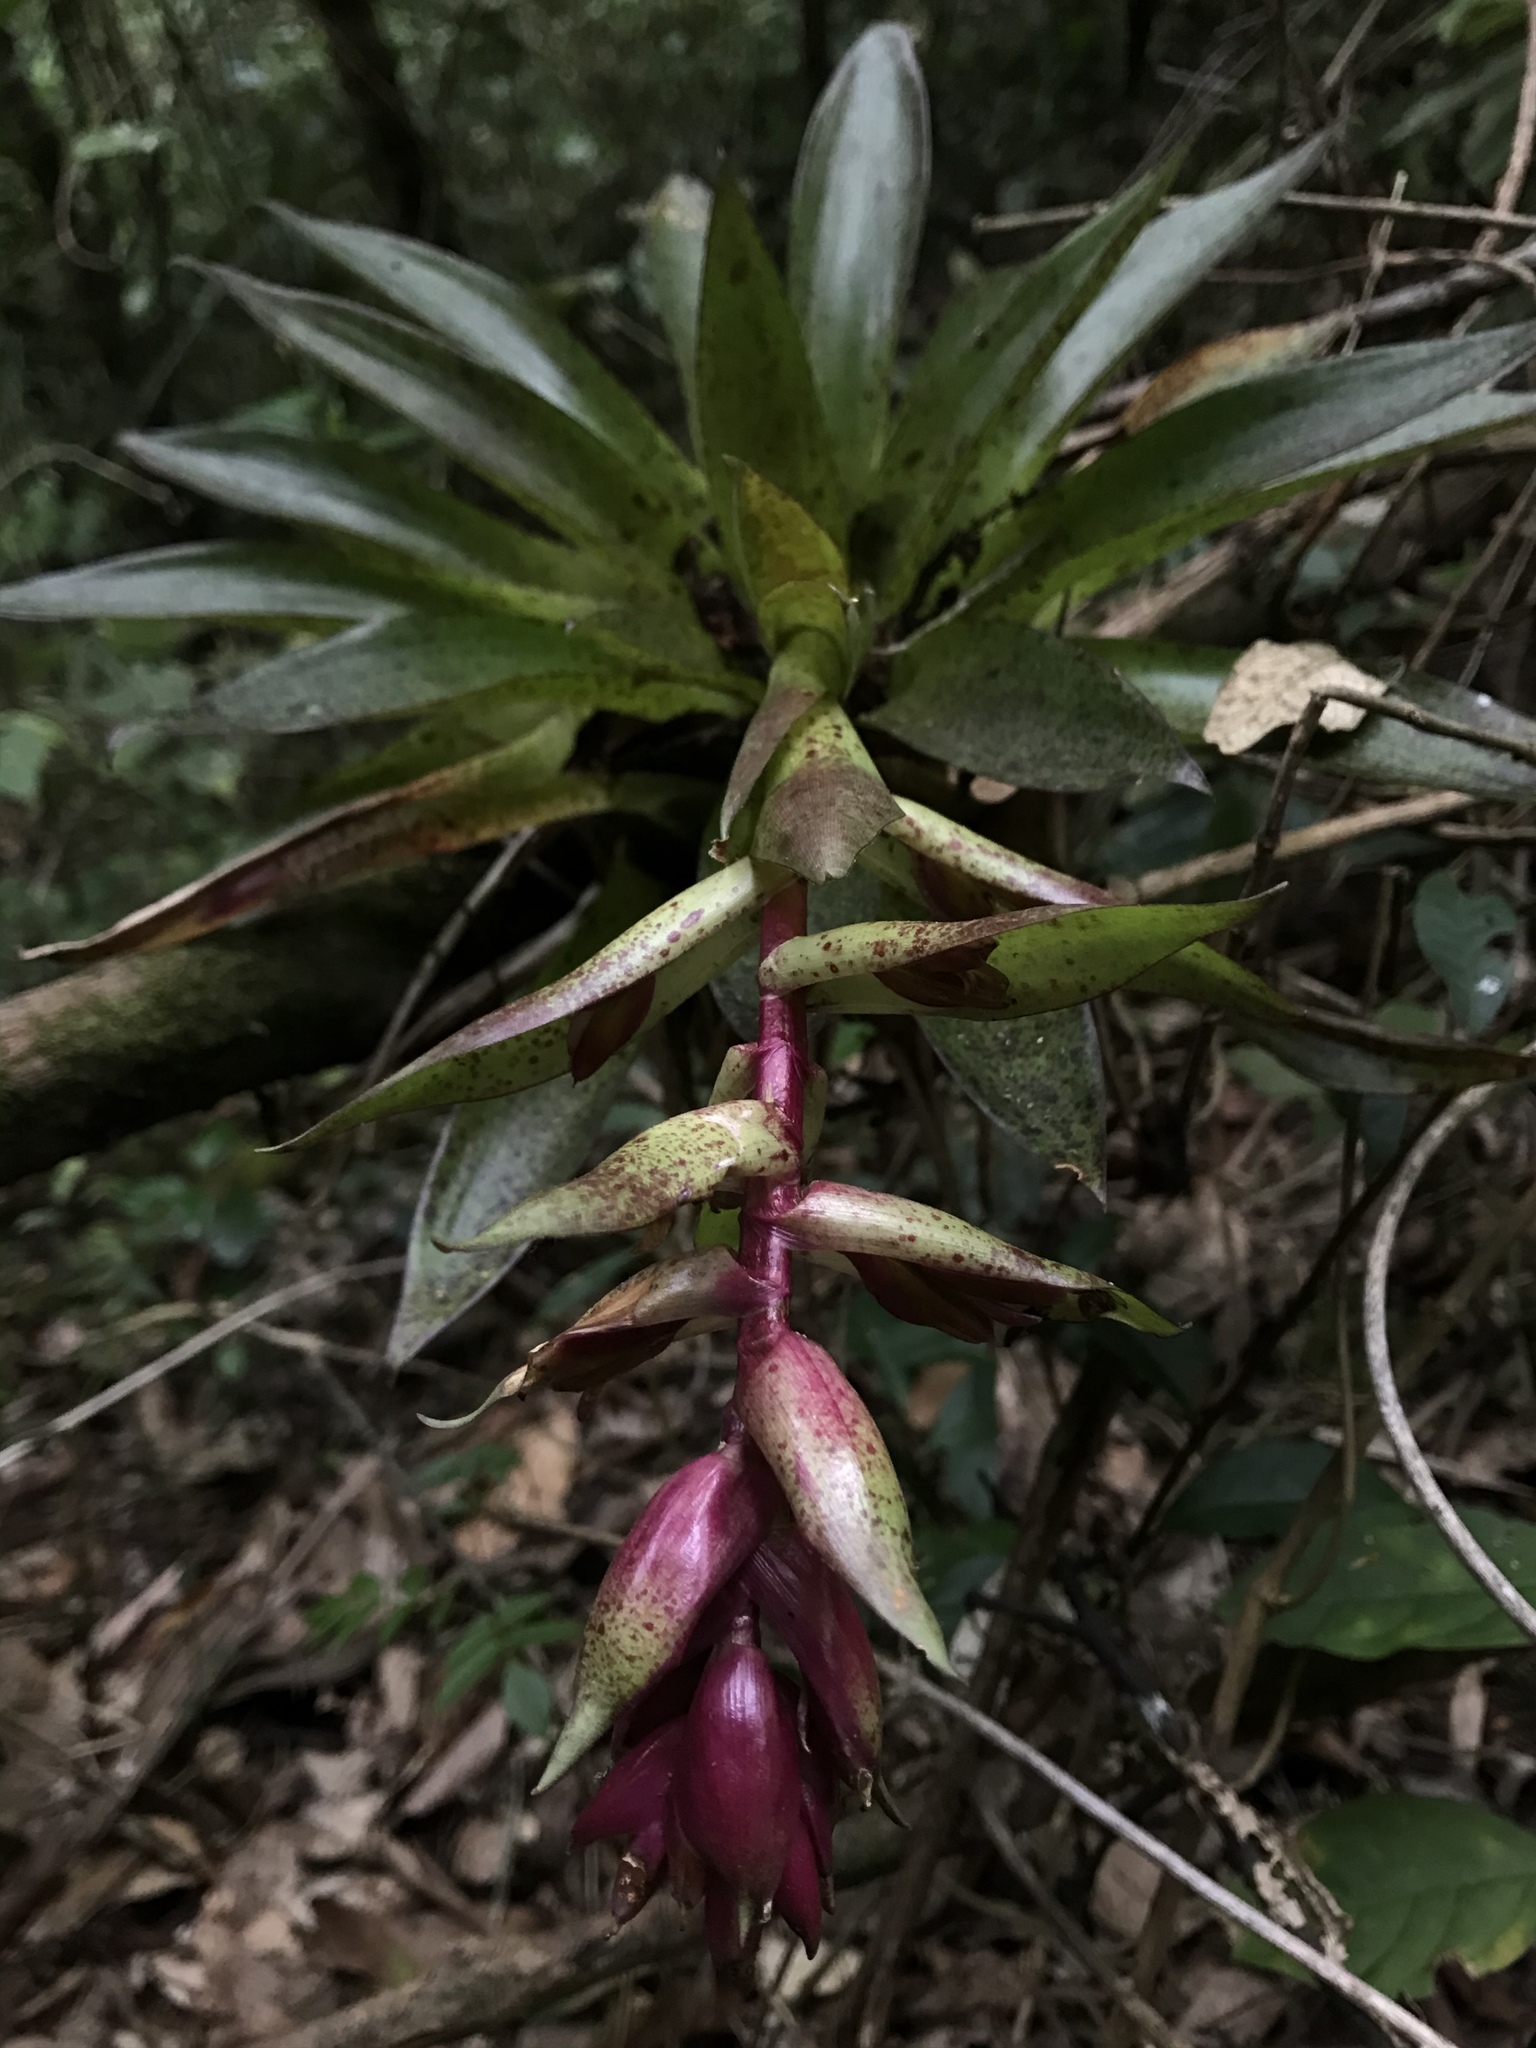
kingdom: Plantae
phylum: Tracheophyta
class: Liliopsida
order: Poales
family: Bromeliaceae
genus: Tillandsia
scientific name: Tillandsia biflora
